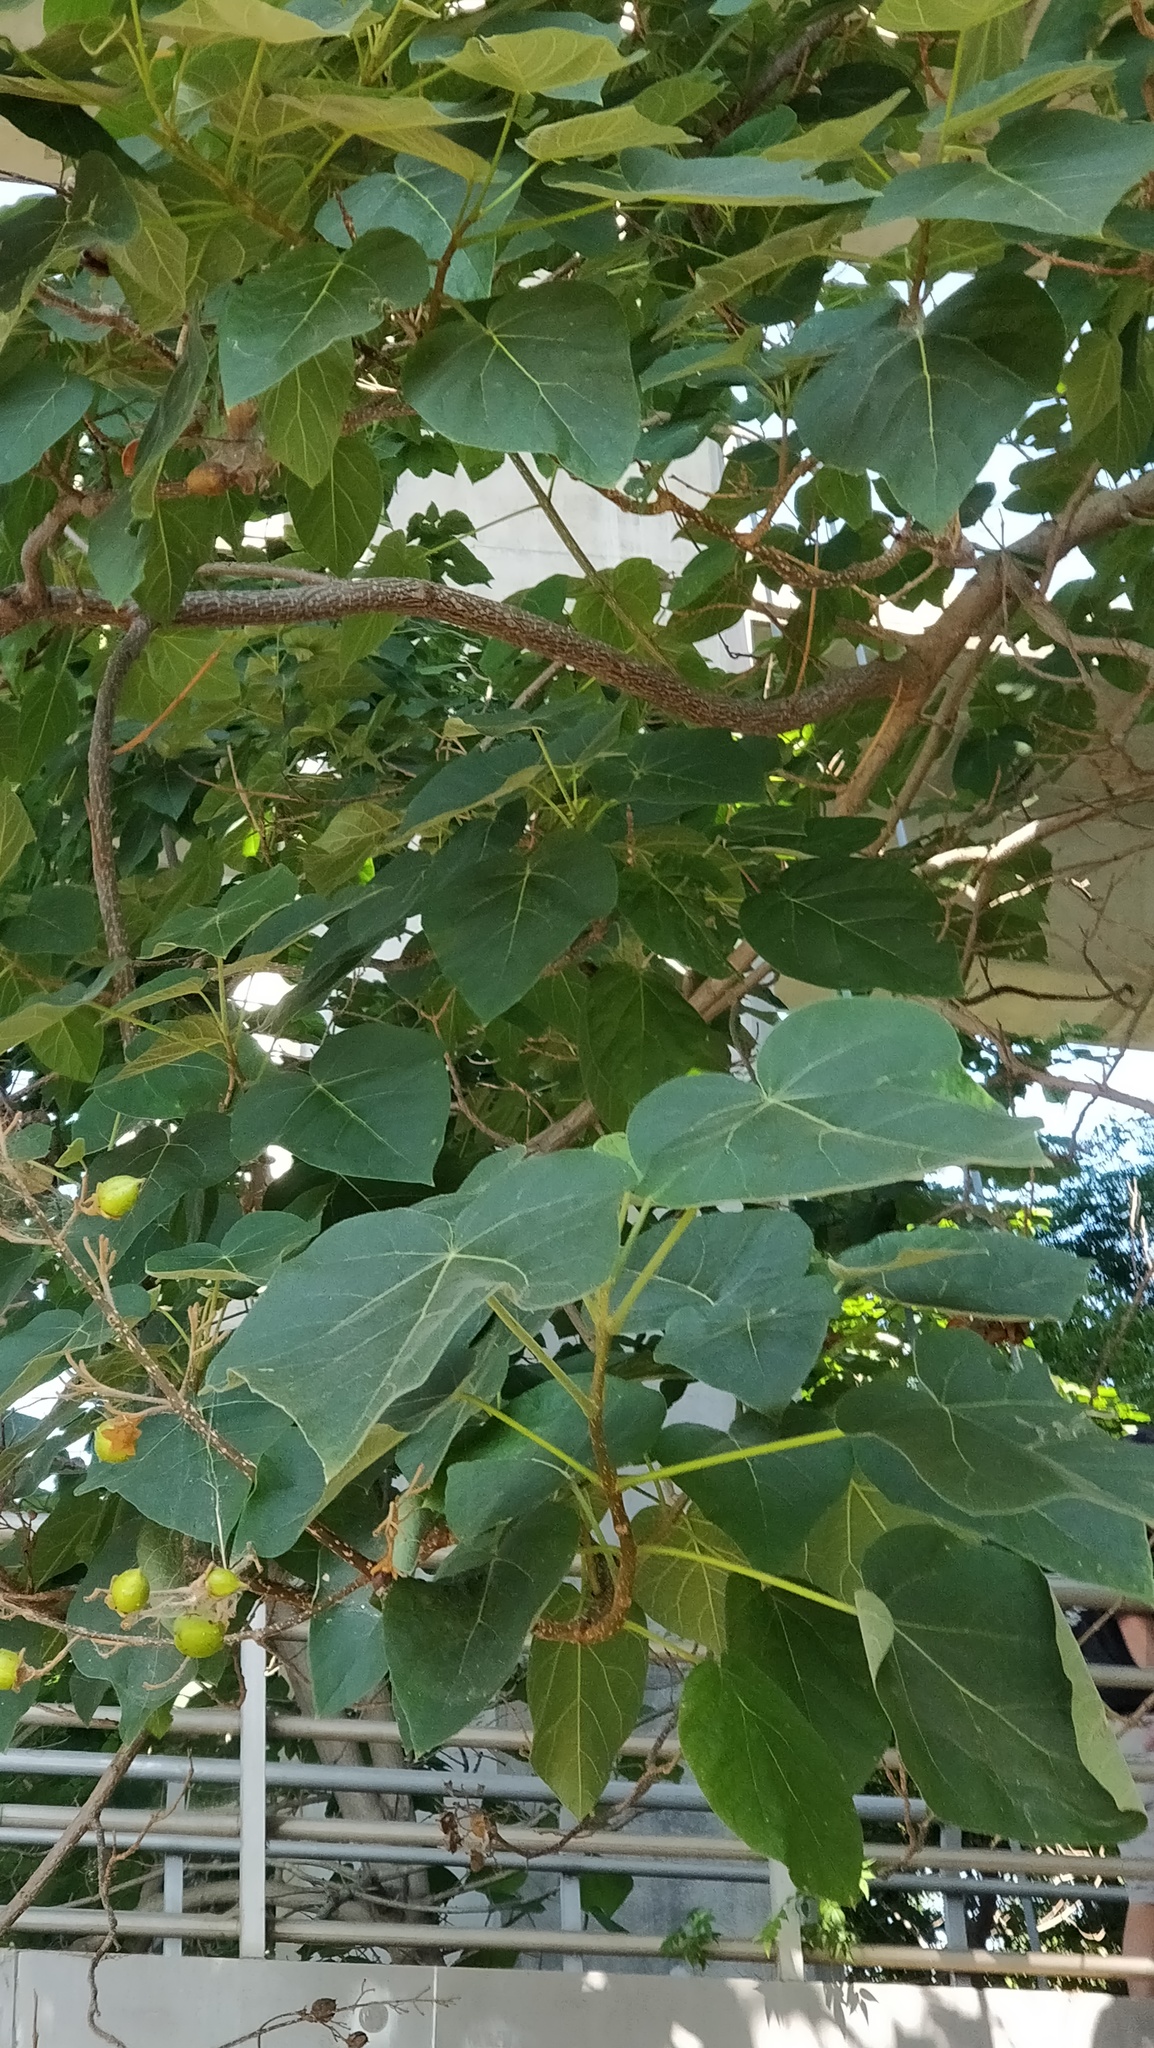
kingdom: Plantae
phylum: Tracheophyta
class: Magnoliopsida
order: Lamiales
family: Paulowniaceae
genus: Paulownia
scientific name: Paulownia tomentosa
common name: Foxglove-tree
